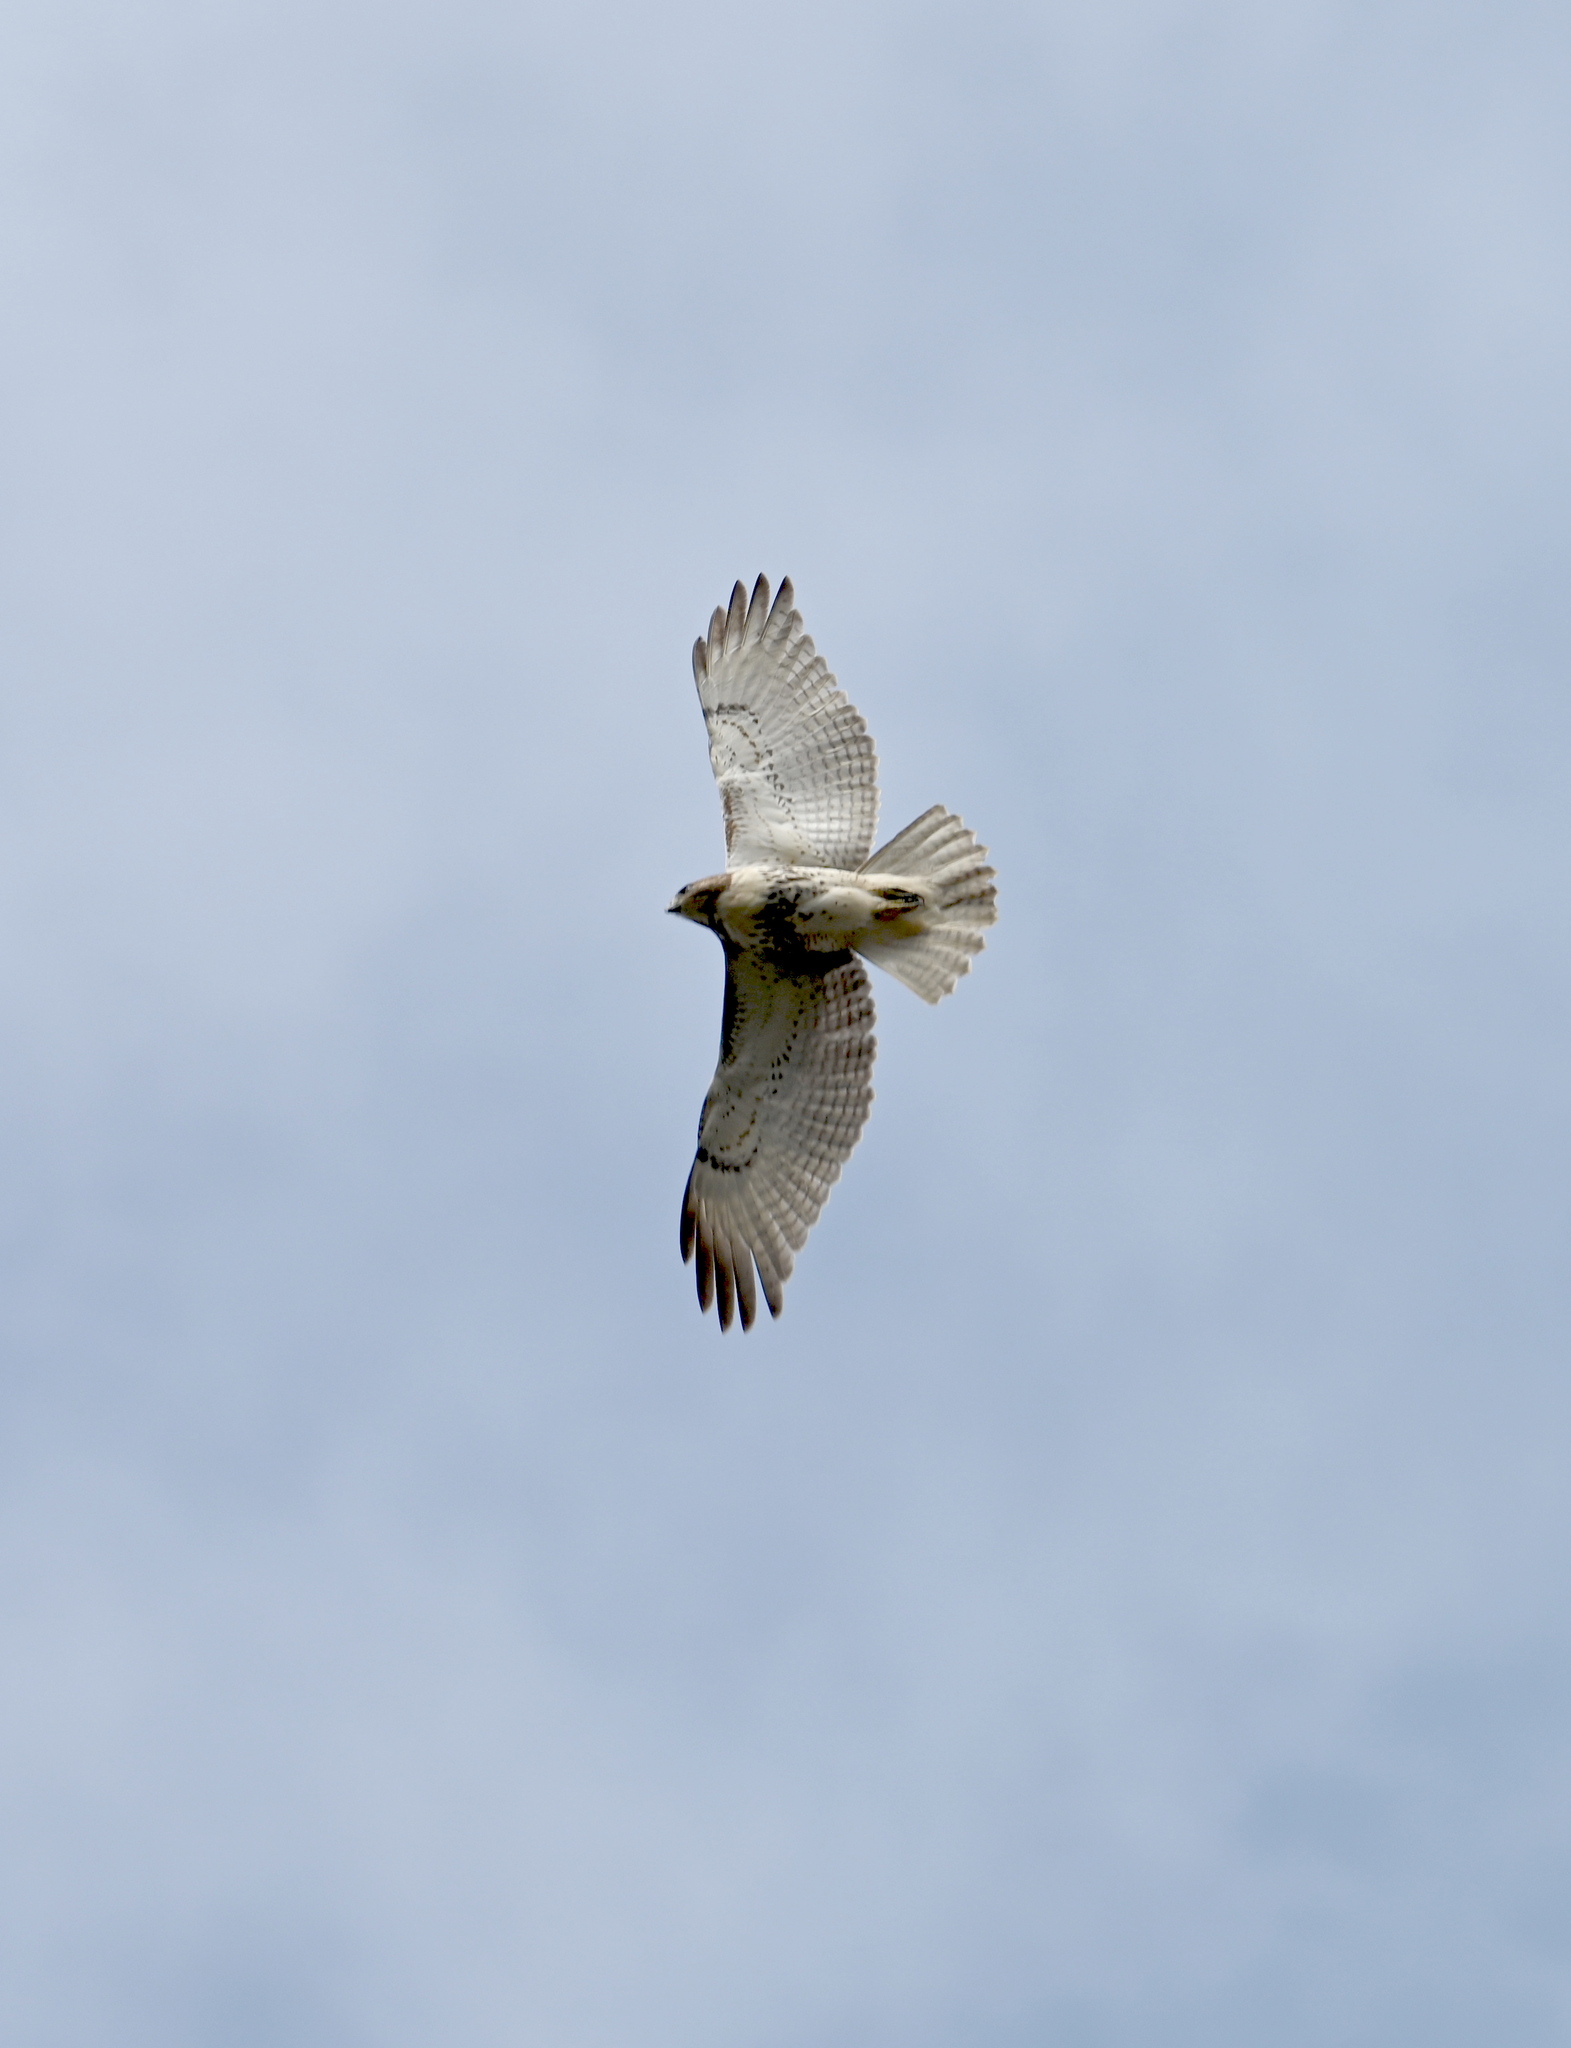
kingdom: Animalia
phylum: Chordata
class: Aves
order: Accipitriformes
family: Accipitridae
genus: Buteo
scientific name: Buteo jamaicensis
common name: Red-tailed hawk
